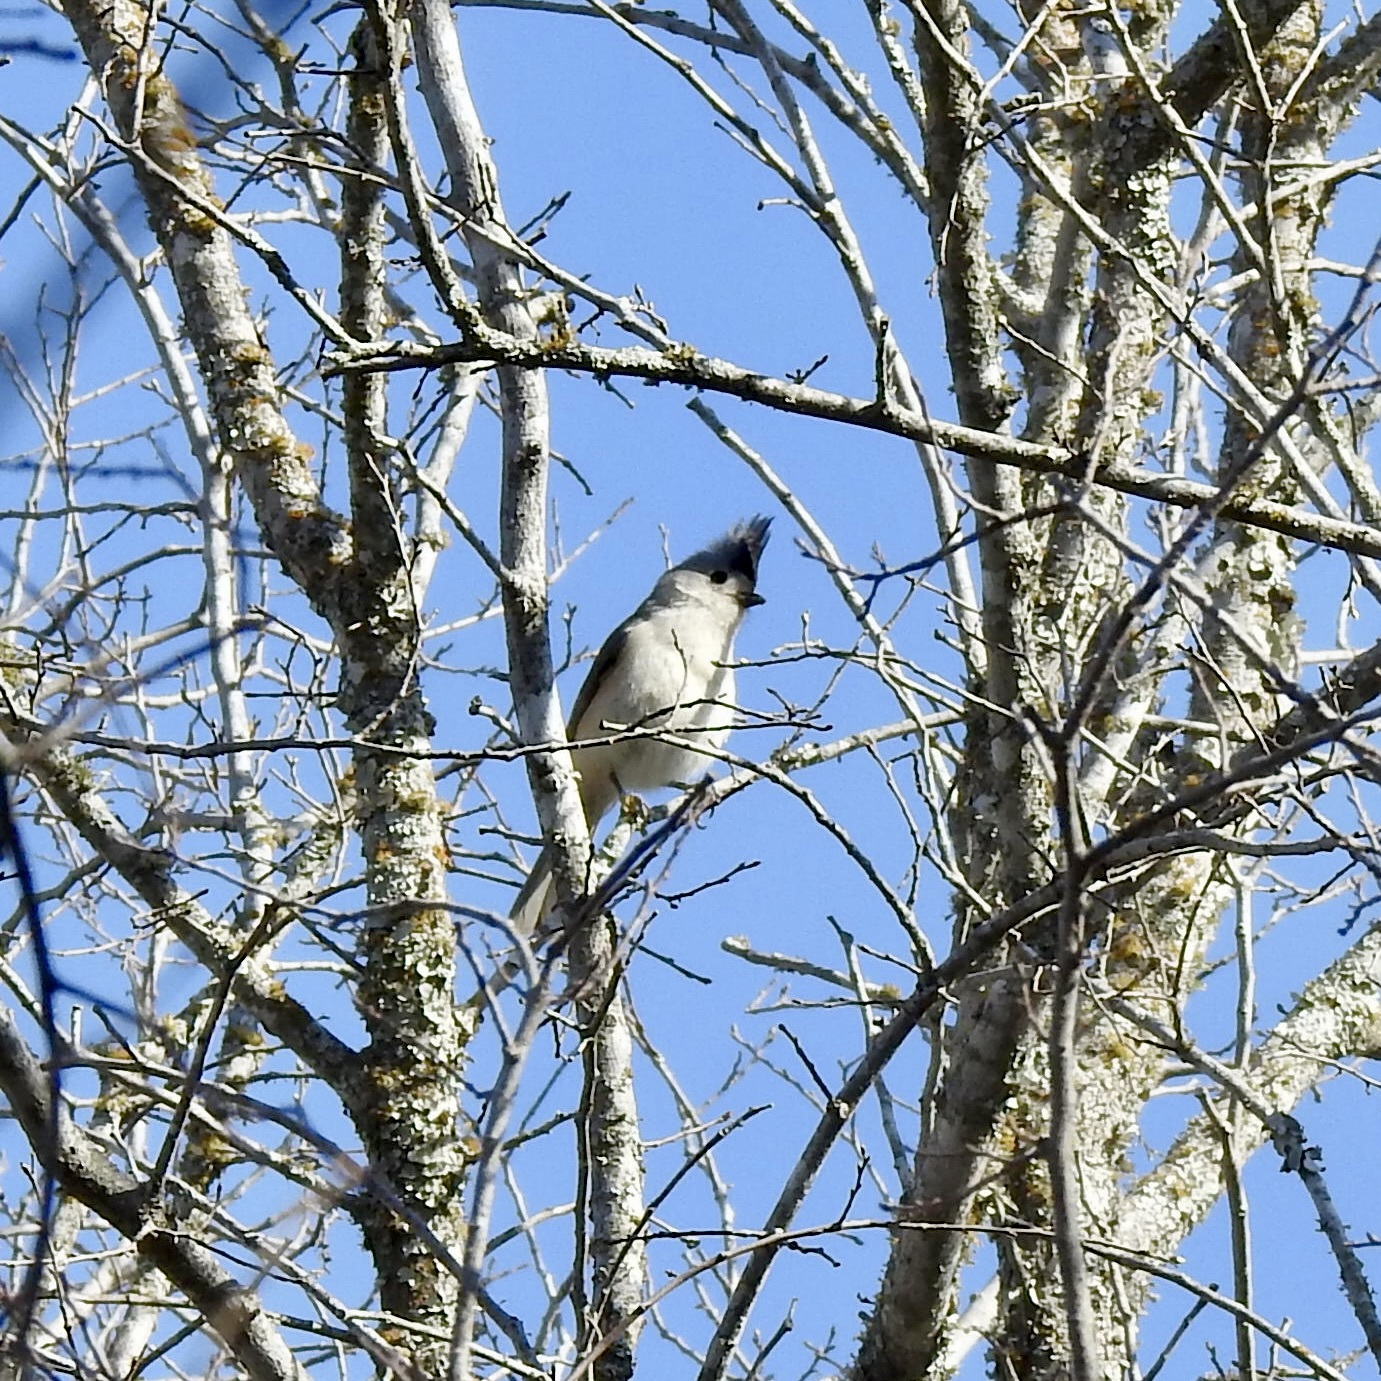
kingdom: Animalia
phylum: Chordata
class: Aves
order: Passeriformes
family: Paridae
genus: Baeolophus
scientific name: Baeolophus atricristatus
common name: Black-crested titmouse
